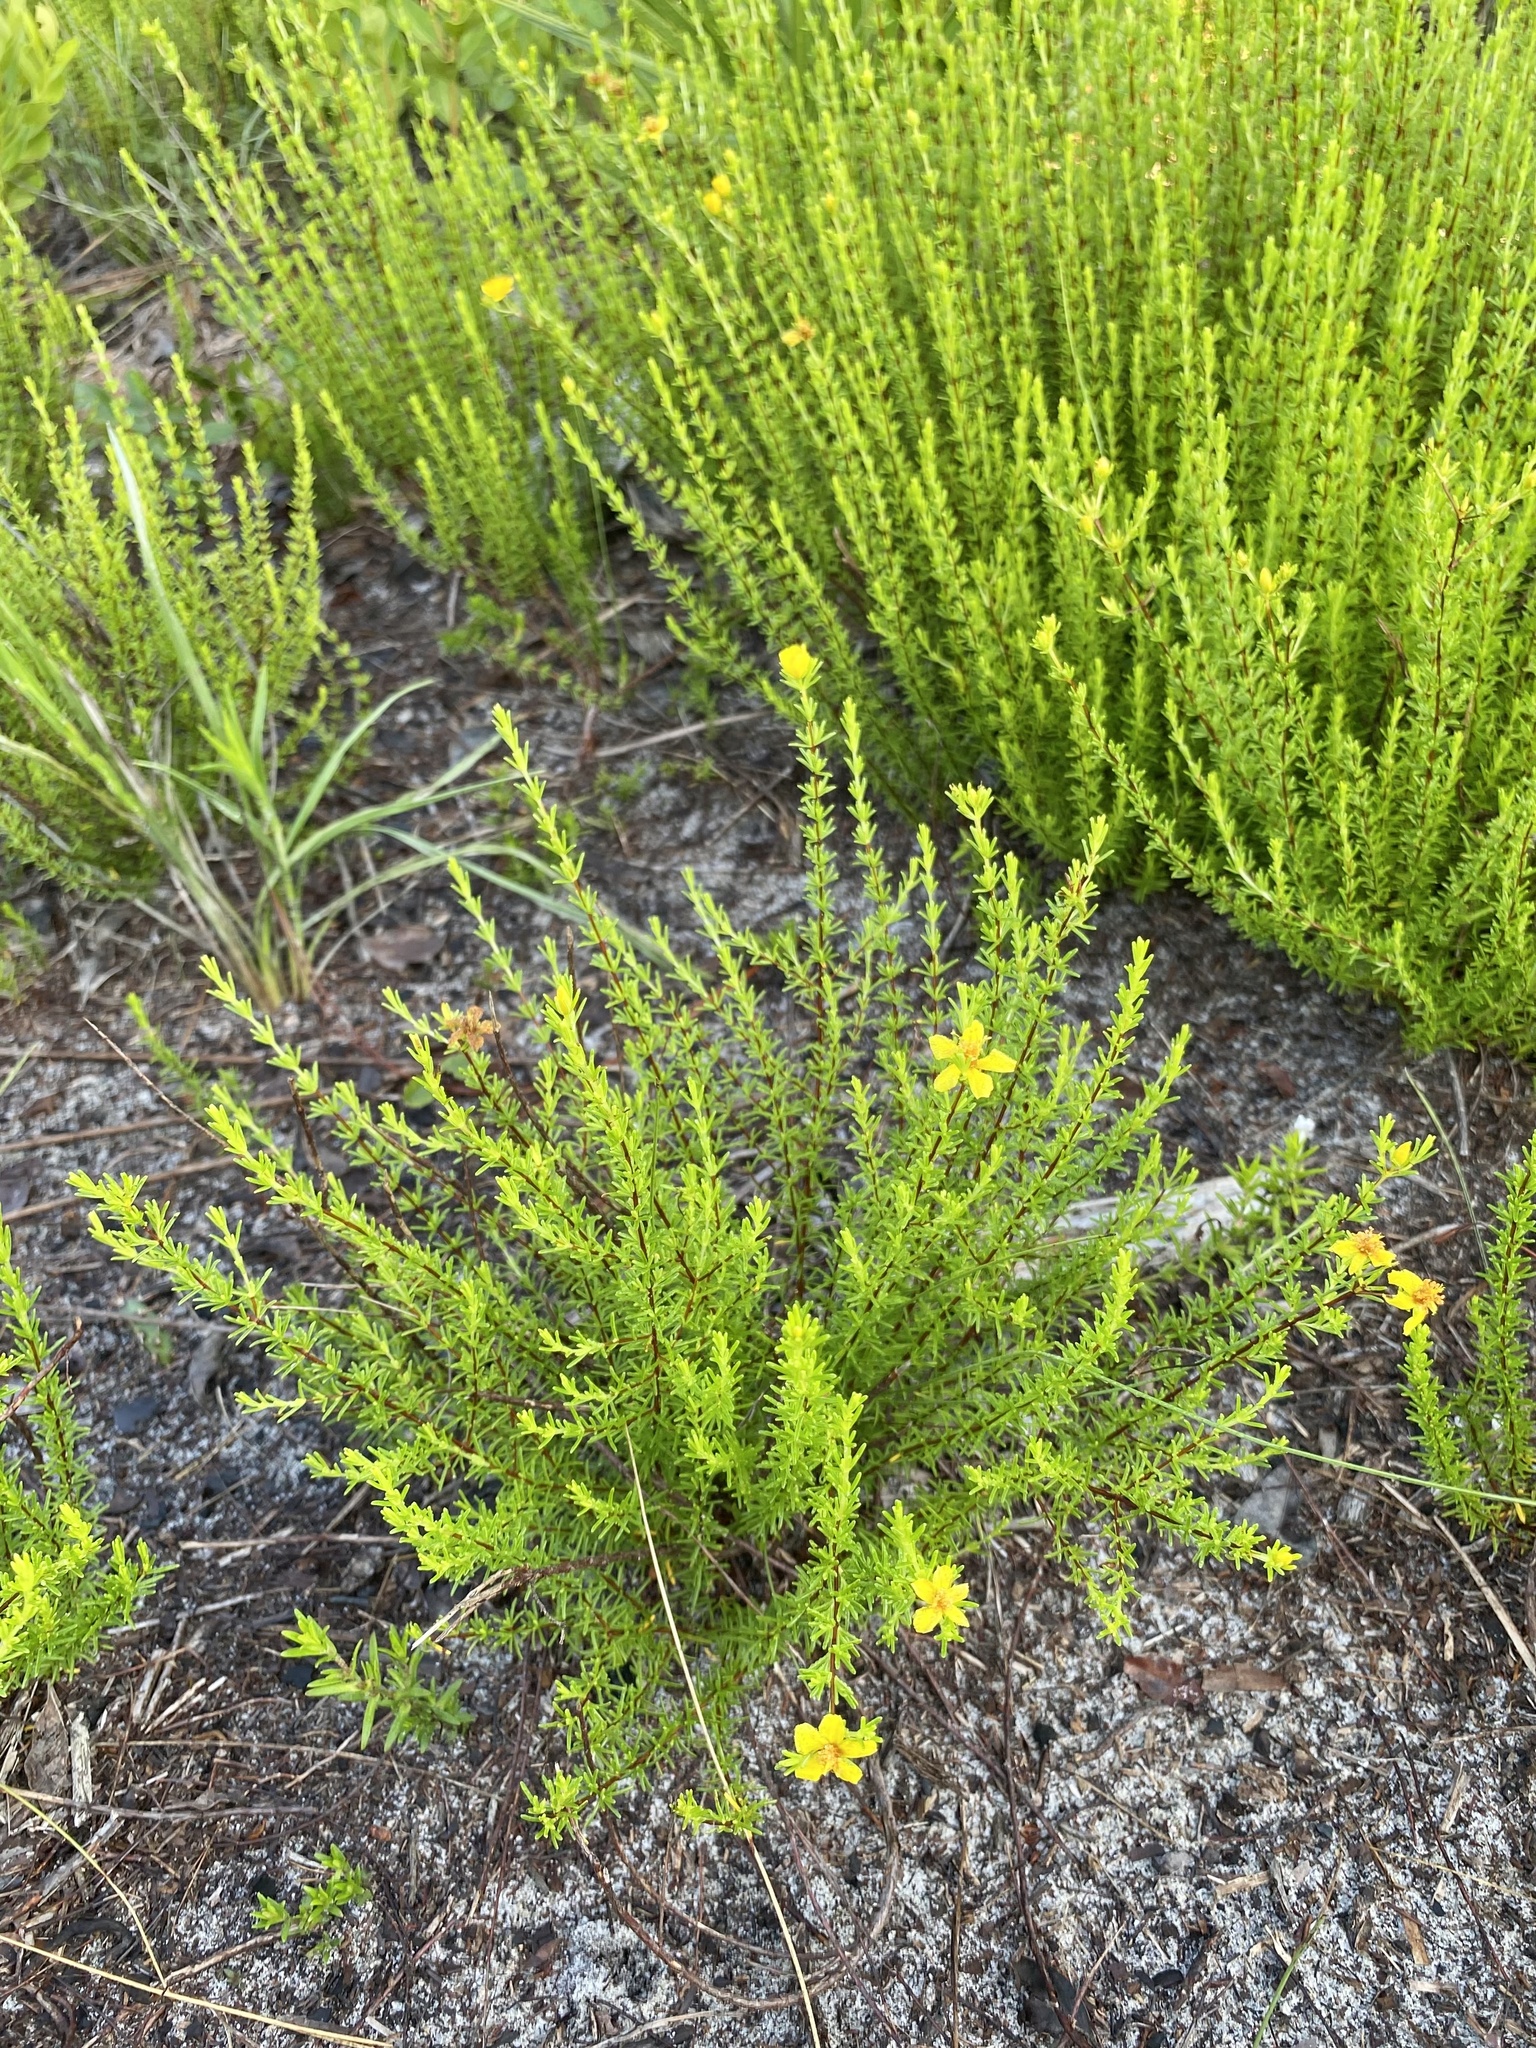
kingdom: Plantae
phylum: Tracheophyta
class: Magnoliopsida
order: Malpighiales
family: Hypericaceae
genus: Hypericum
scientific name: Hypericum tenuifolium
